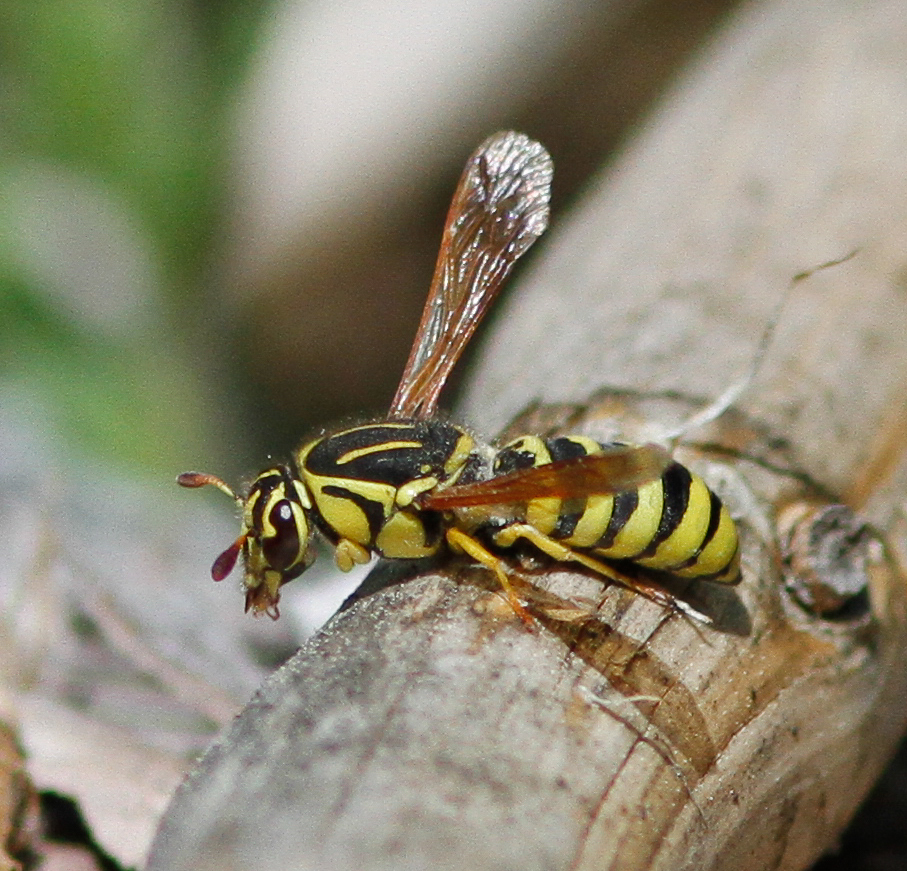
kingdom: Animalia
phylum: Arthropoda
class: Insecta
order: Hymenoptera
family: Masaridae
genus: Pseudomasaris
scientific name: Pseudomasaris coquilletti
